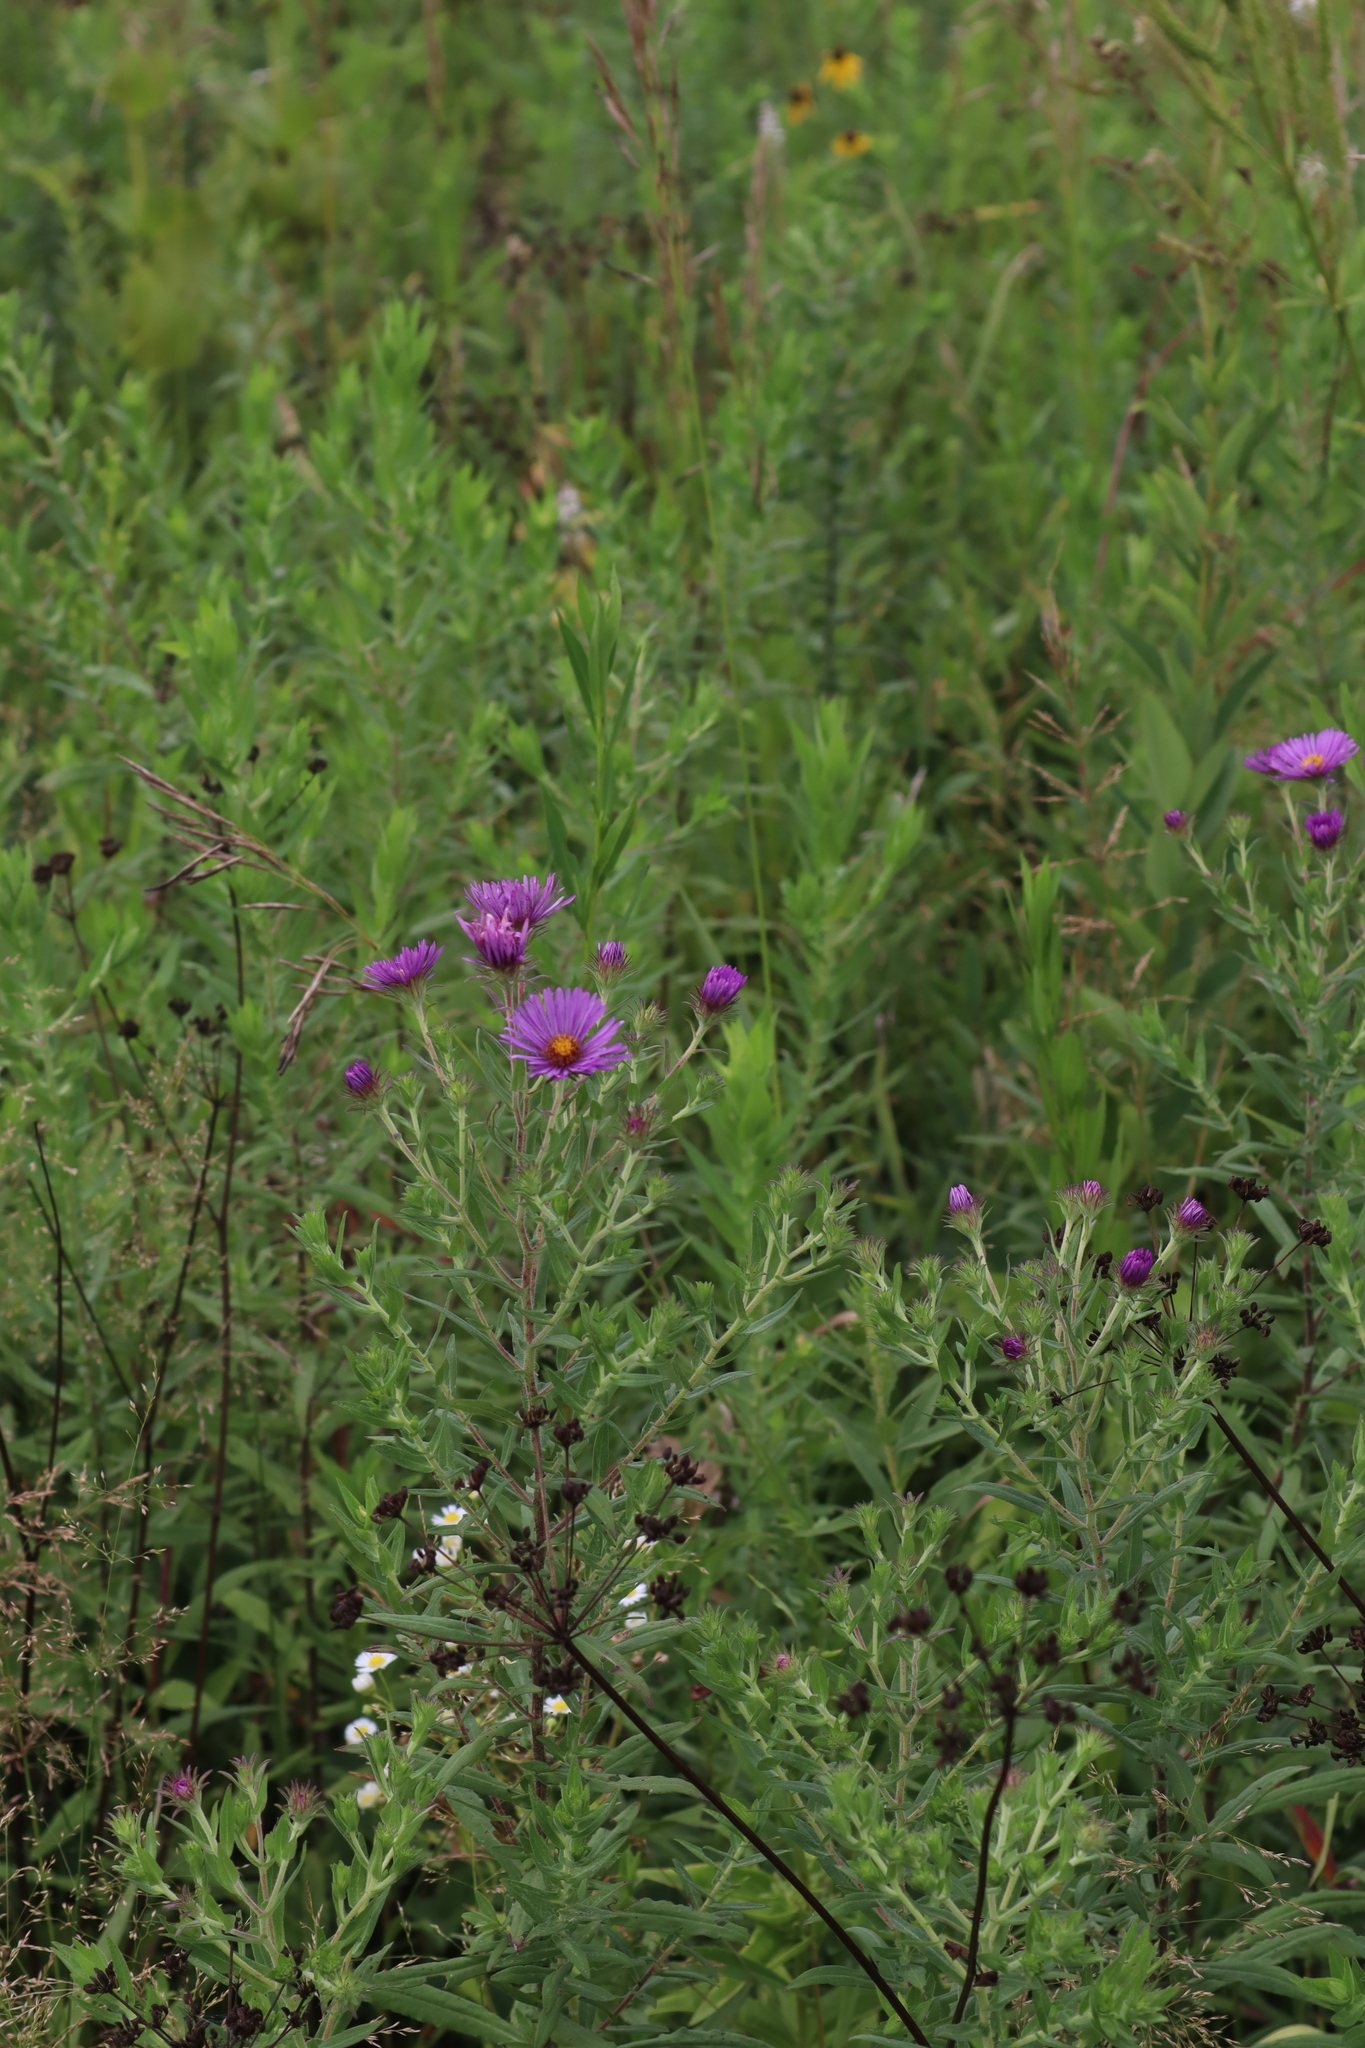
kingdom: Plantae
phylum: Tracheophyta
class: Magnoliopsida
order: Asterales
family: Asteraceae
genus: Symphyotrichum
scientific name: Symphyotrichum novae-angliae
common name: Michaelmas daisy
